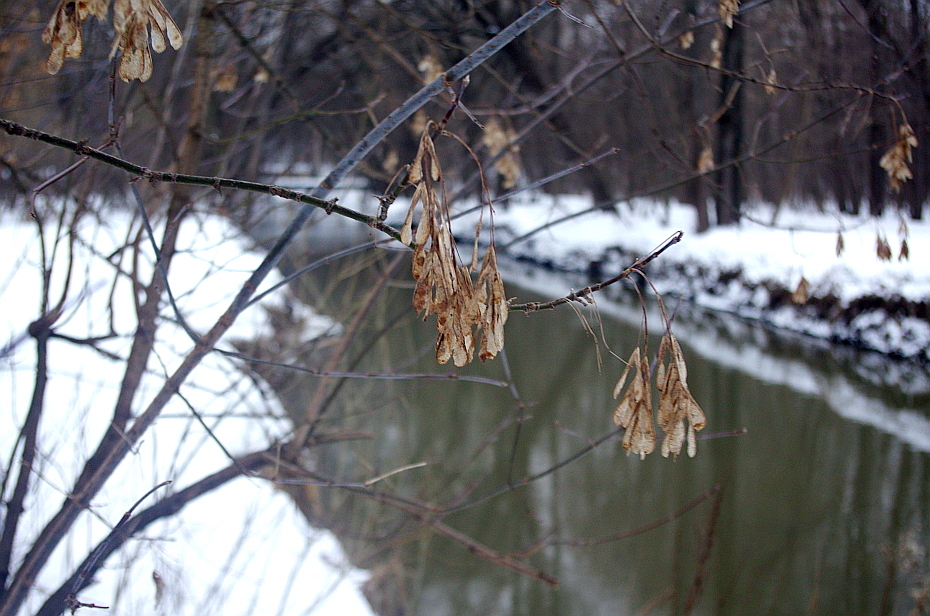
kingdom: Plantae
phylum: Tracheophyta
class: Magnoliopsida
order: Sapindales
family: Sapindaceae
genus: Acer
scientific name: Acer negundo
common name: Ashleaf maple
